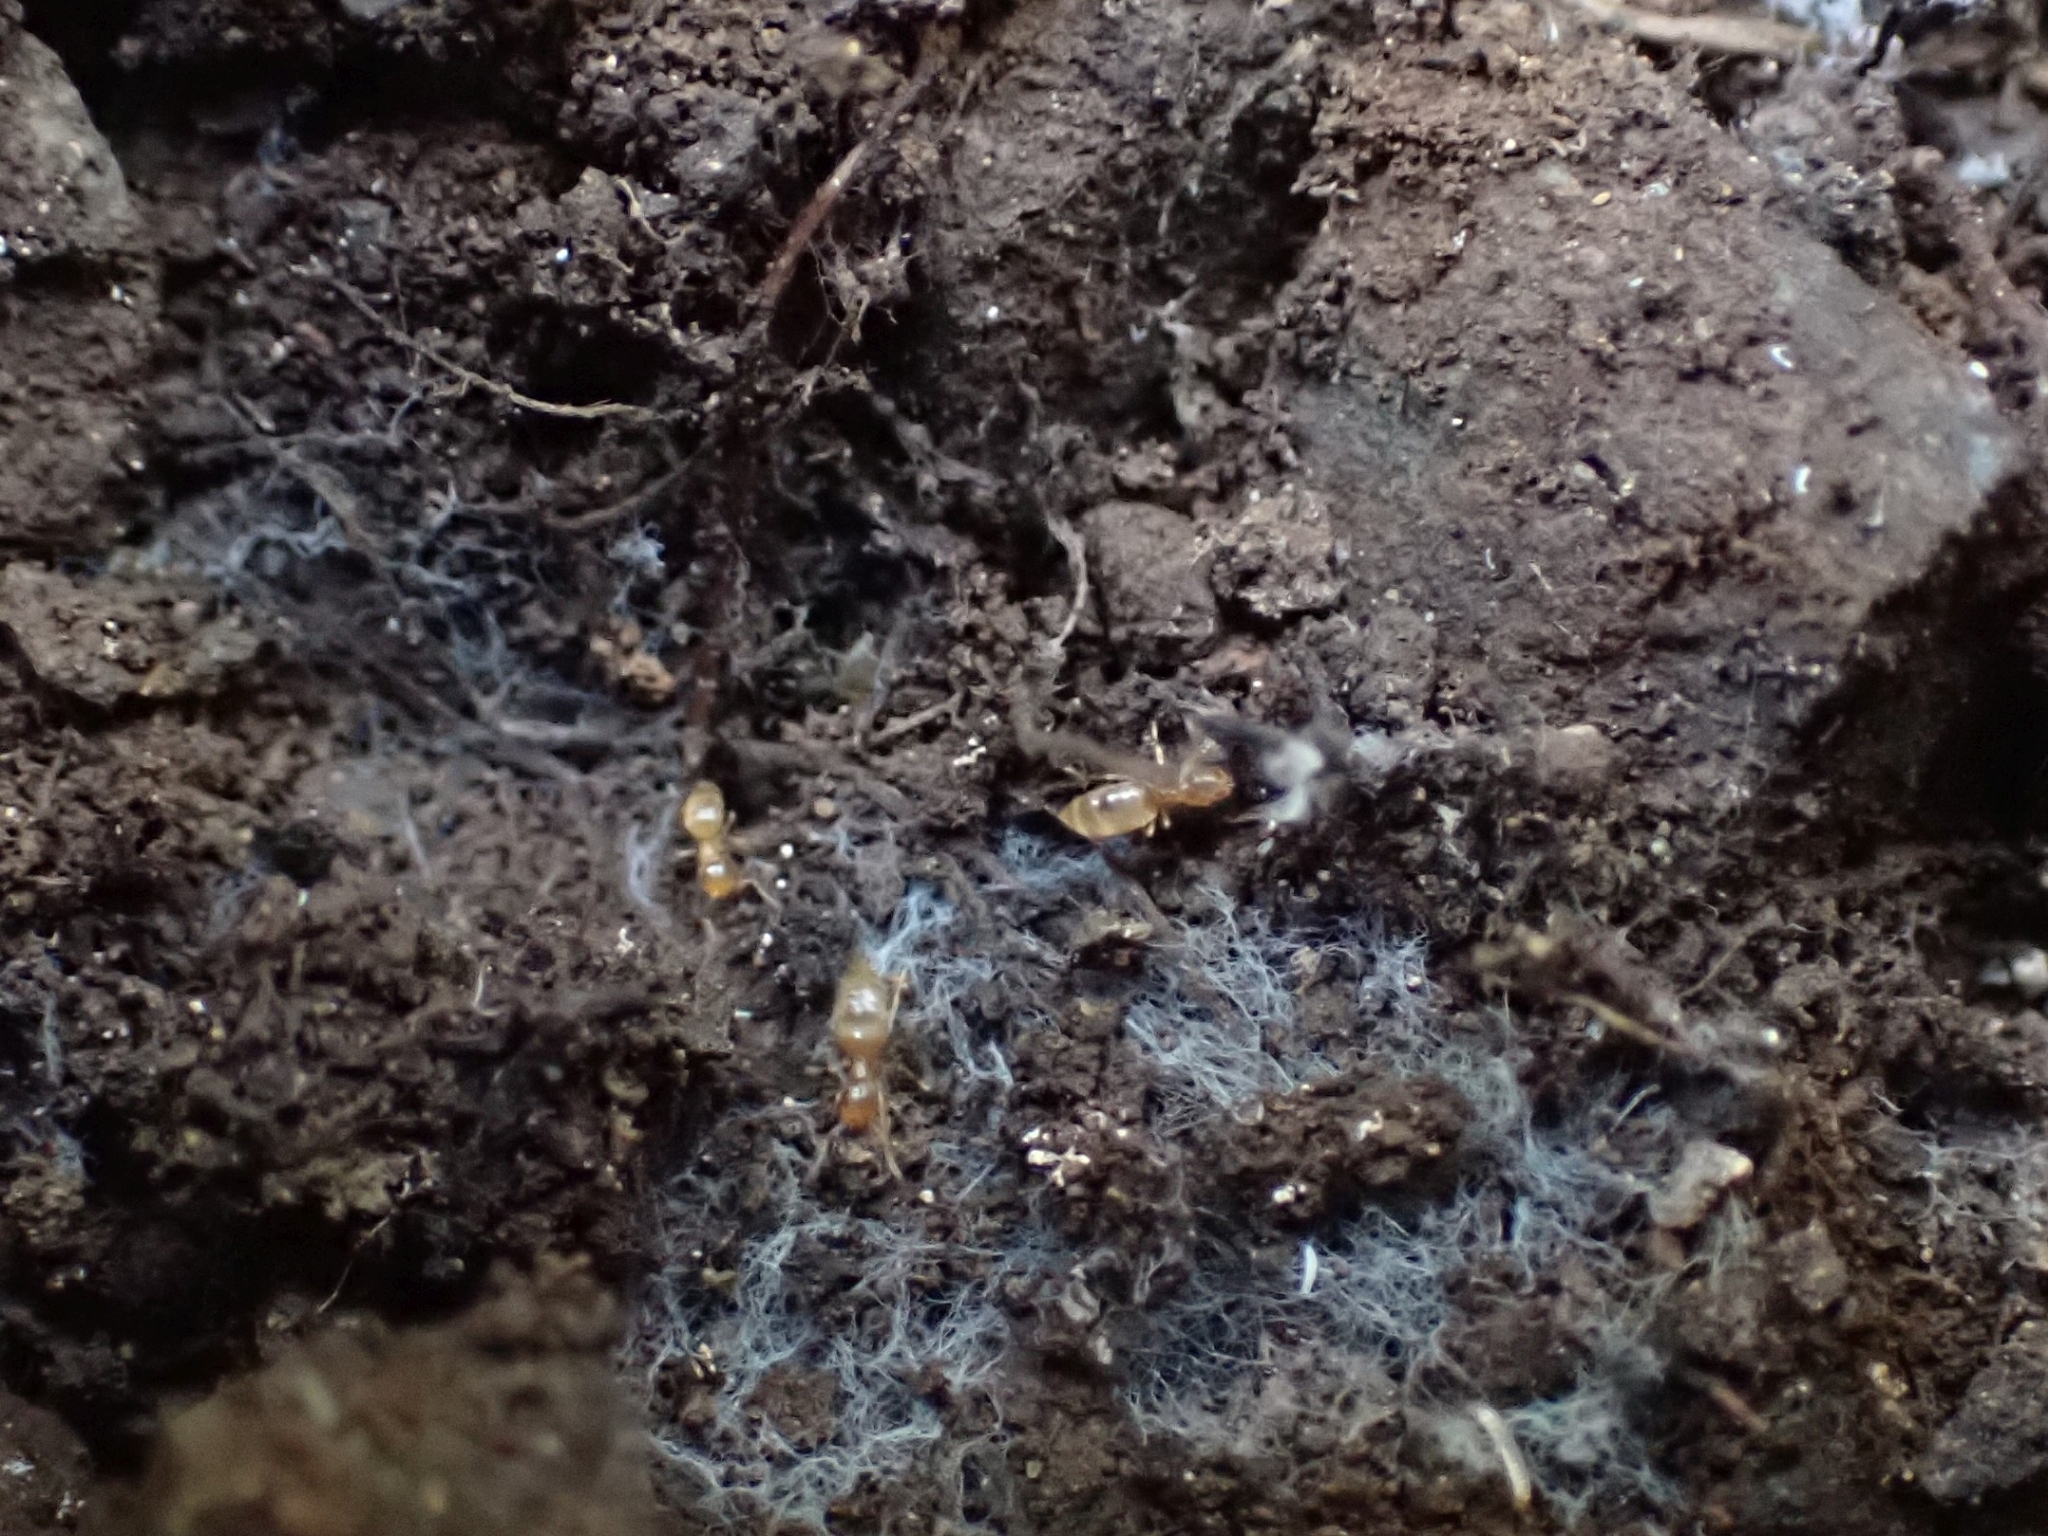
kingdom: Animalia
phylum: Arthropoda
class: Insecta
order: Hymenoptera
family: Formicidae
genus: Brachymyrmex
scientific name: Brachymyrmex depilis
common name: Hairless rover ant
